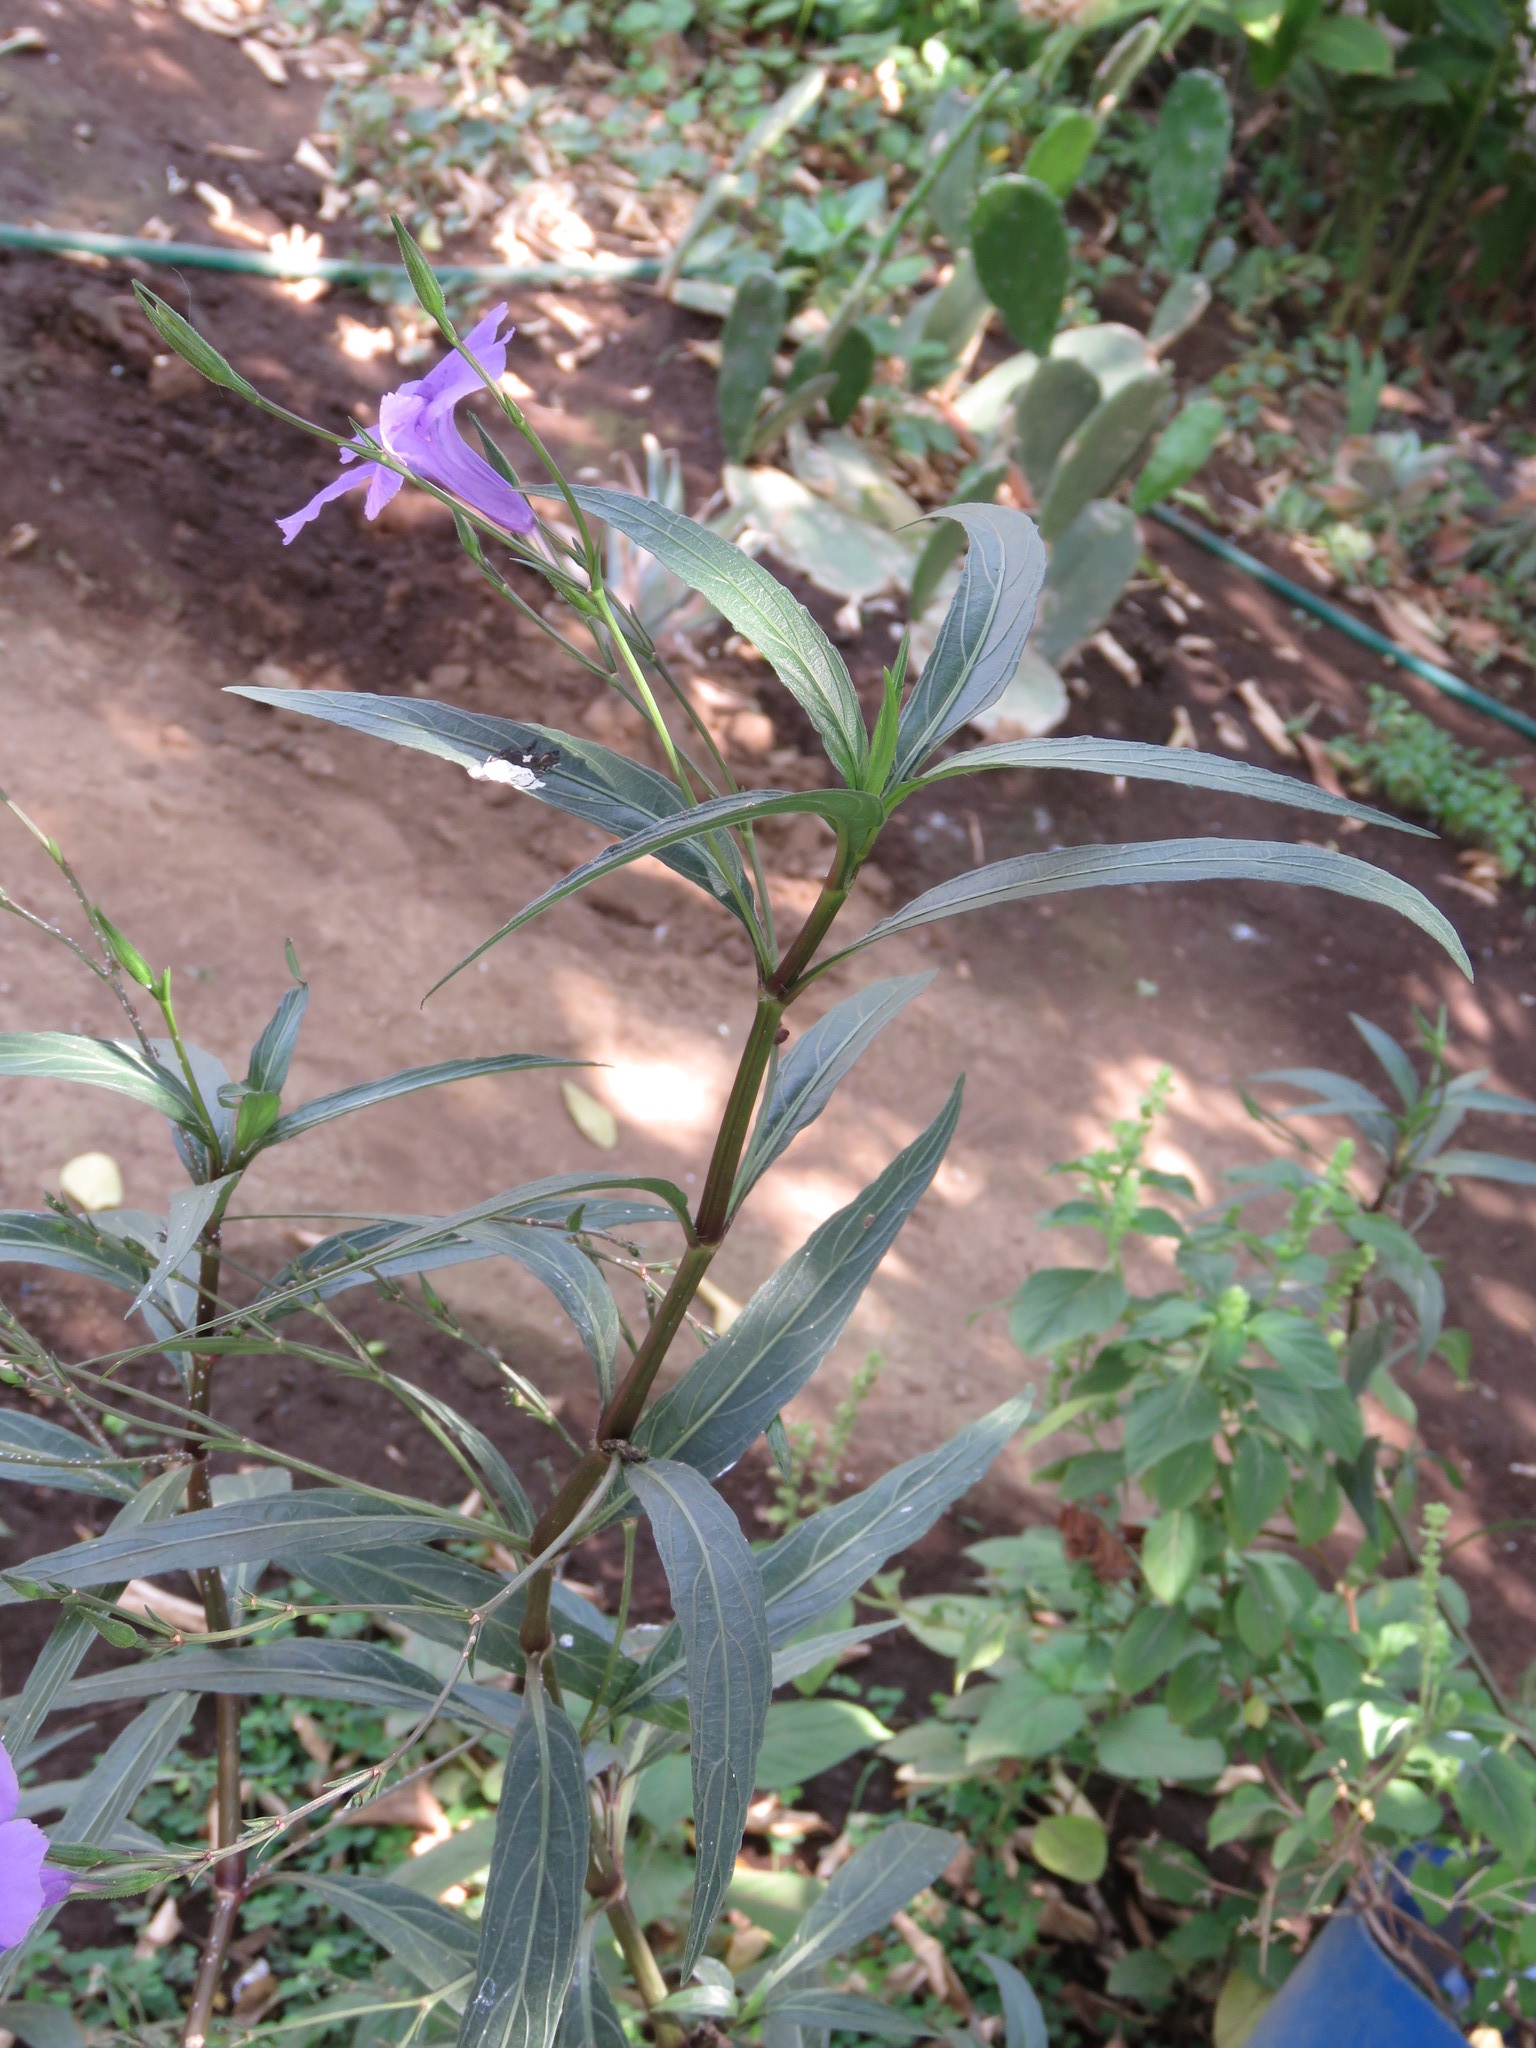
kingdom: Plantae
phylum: Tracheophyta
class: Magnoliopsida
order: Lamiales
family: Acanthaceae
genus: Ruellia
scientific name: Ruellia simplex
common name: Softseed wild petunia
